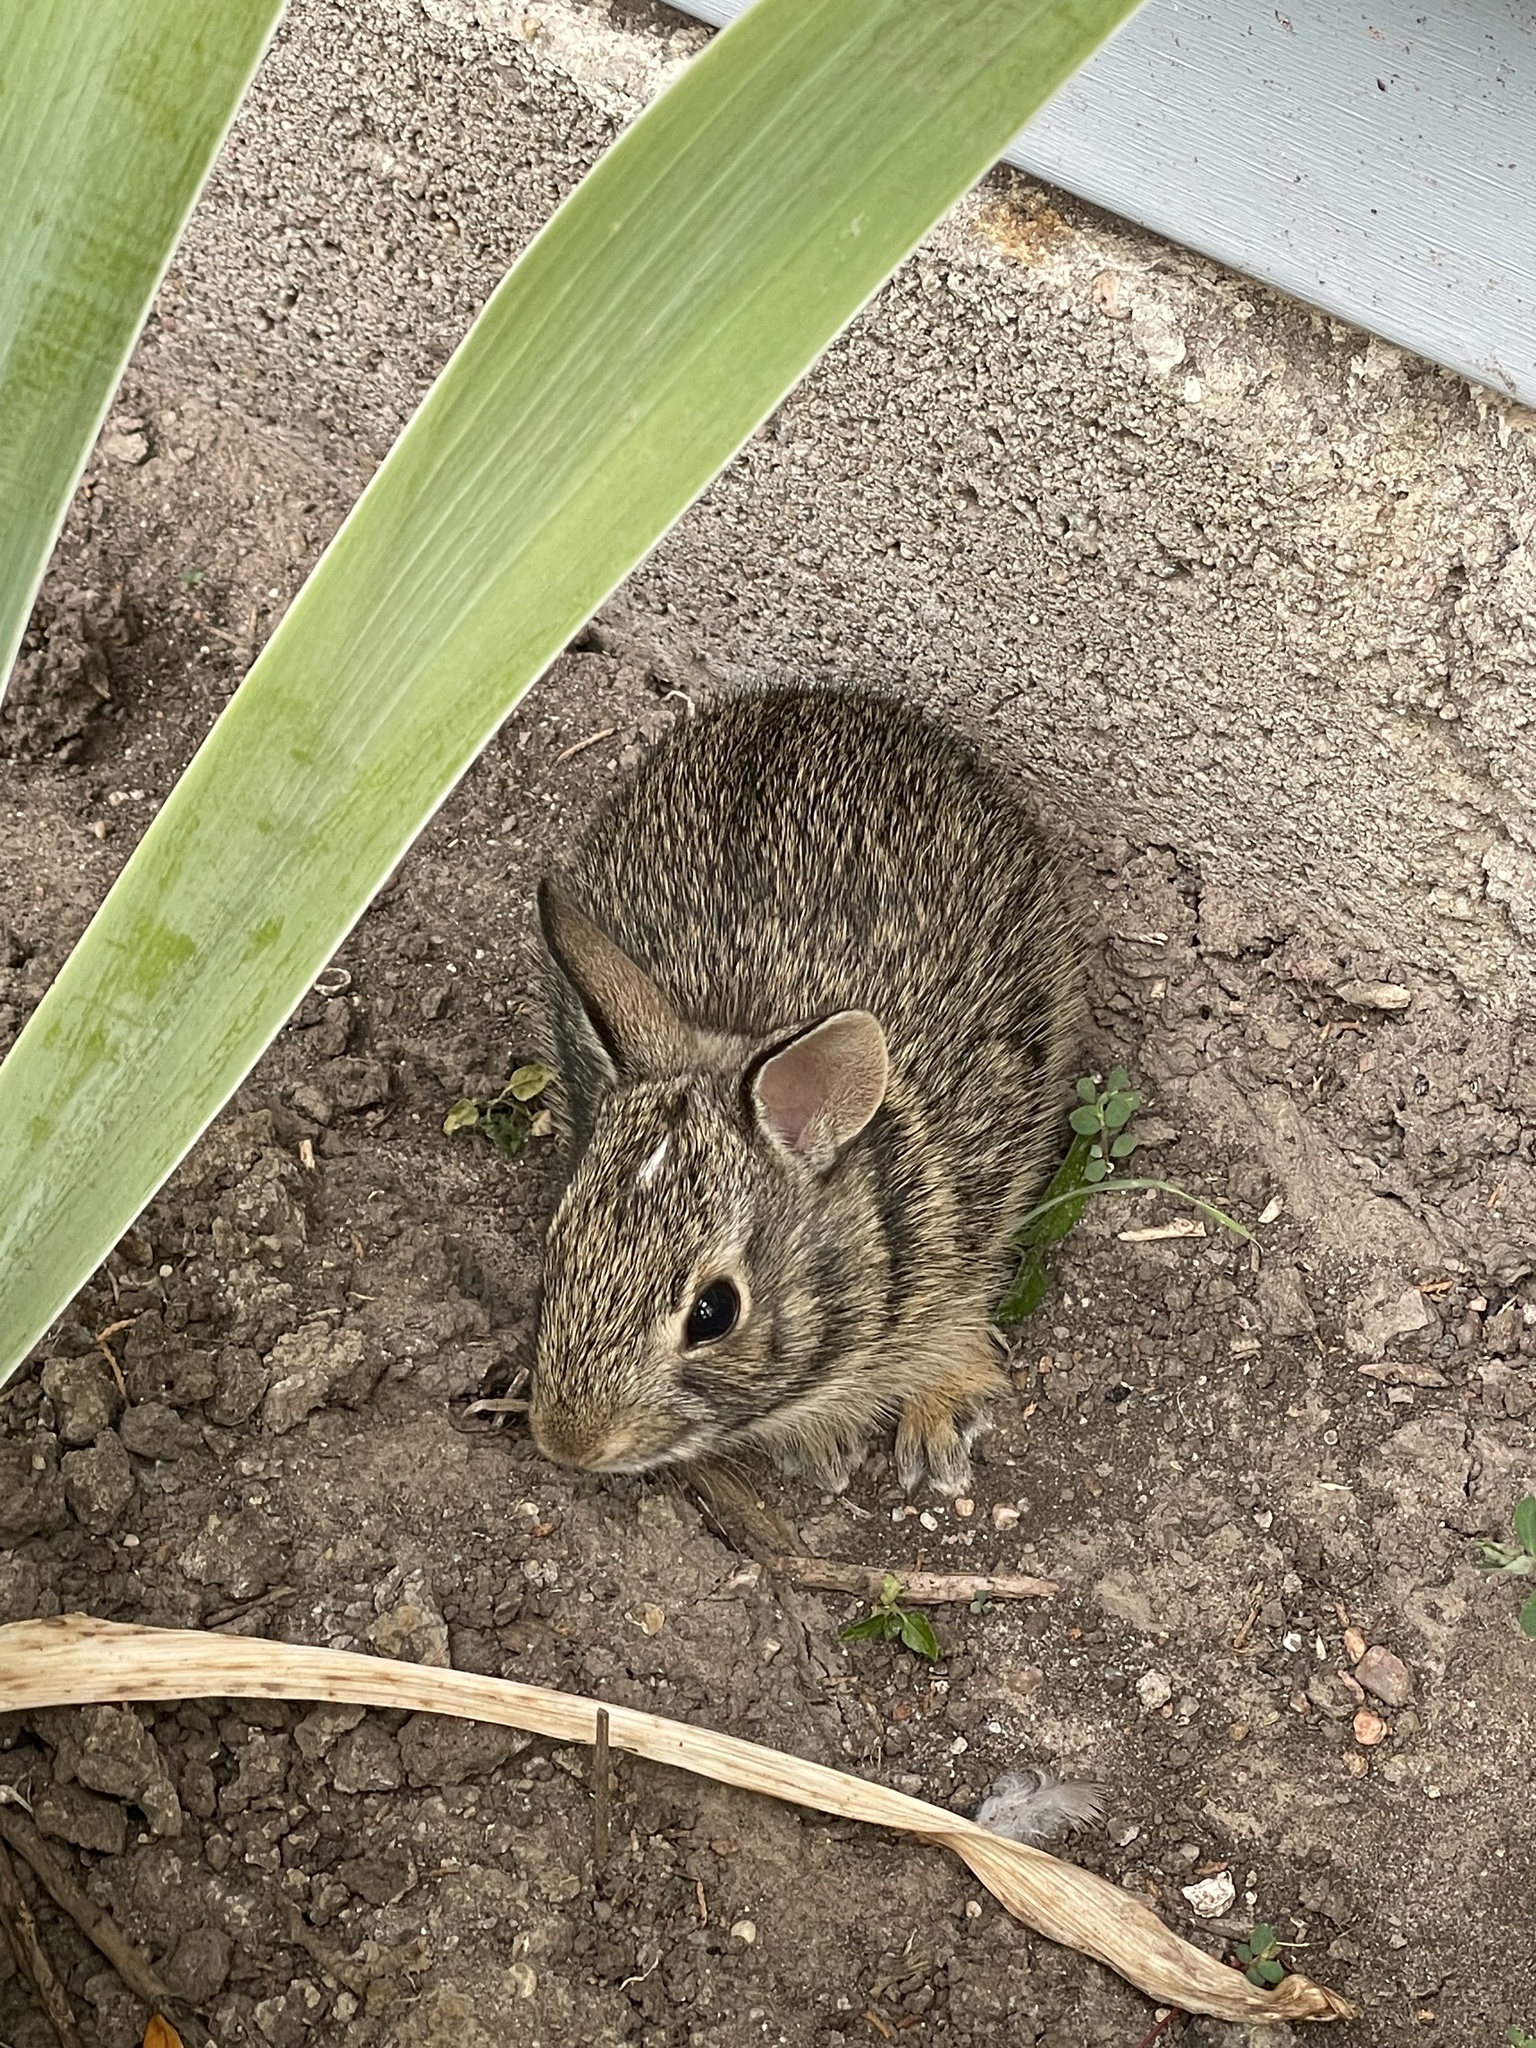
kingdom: Animalia
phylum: Chordata
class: Mammalia
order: Lagomorpha
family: Leporidae
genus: Sylvilagus
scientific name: Sylvilagus floridanus
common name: Eastern cottontail
